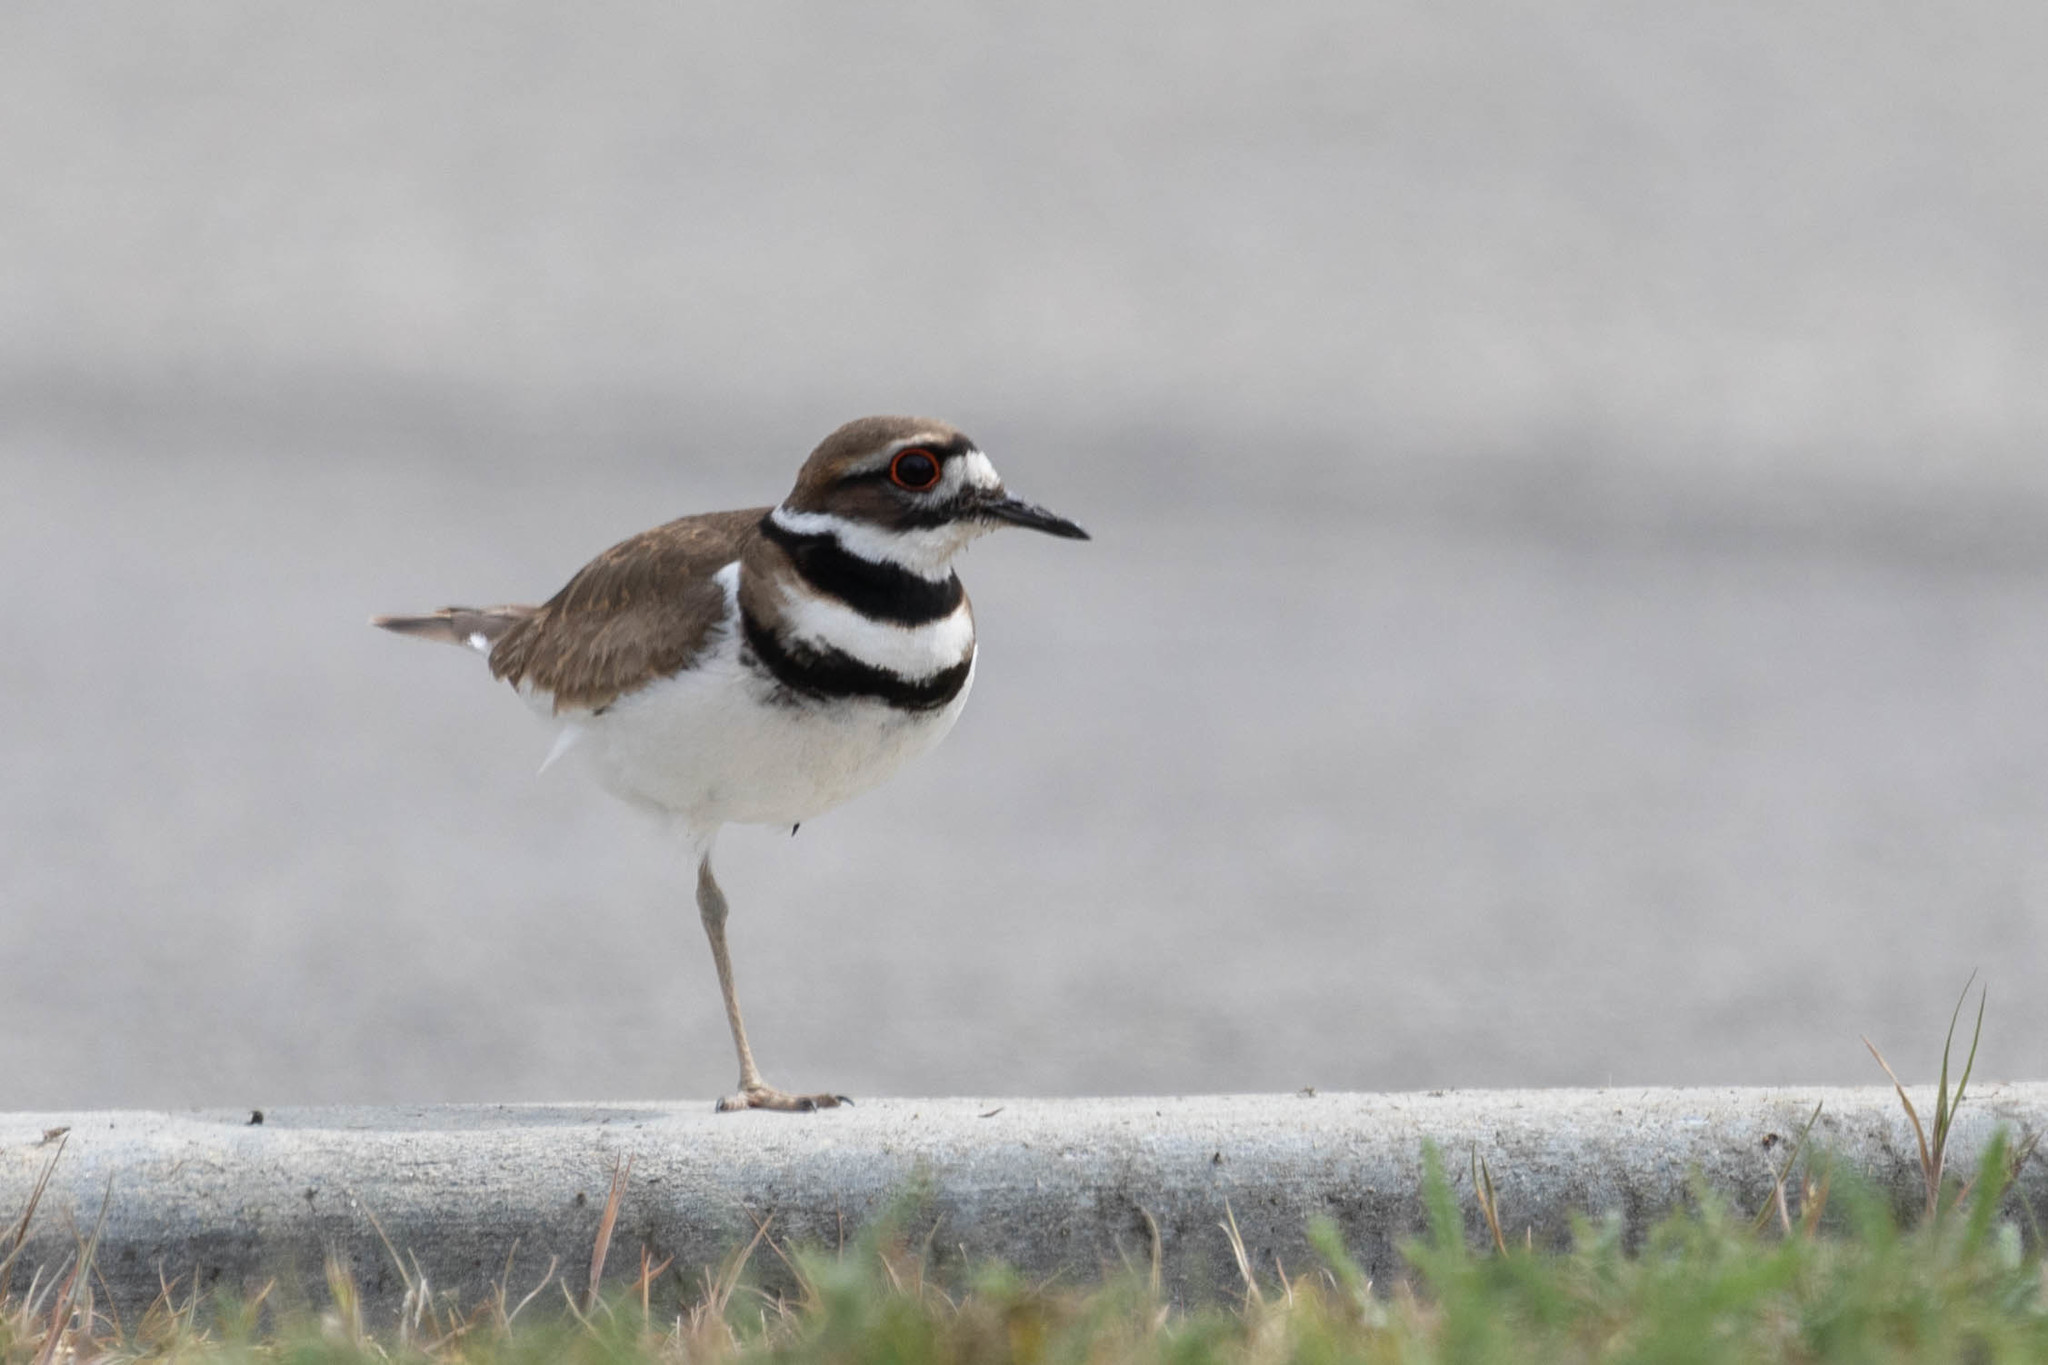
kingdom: Animalia
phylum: Chordata
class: Aves
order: Charadriiformes
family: Charadriidae
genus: Charadrius
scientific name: Charadrius vociferus
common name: Killdeer
